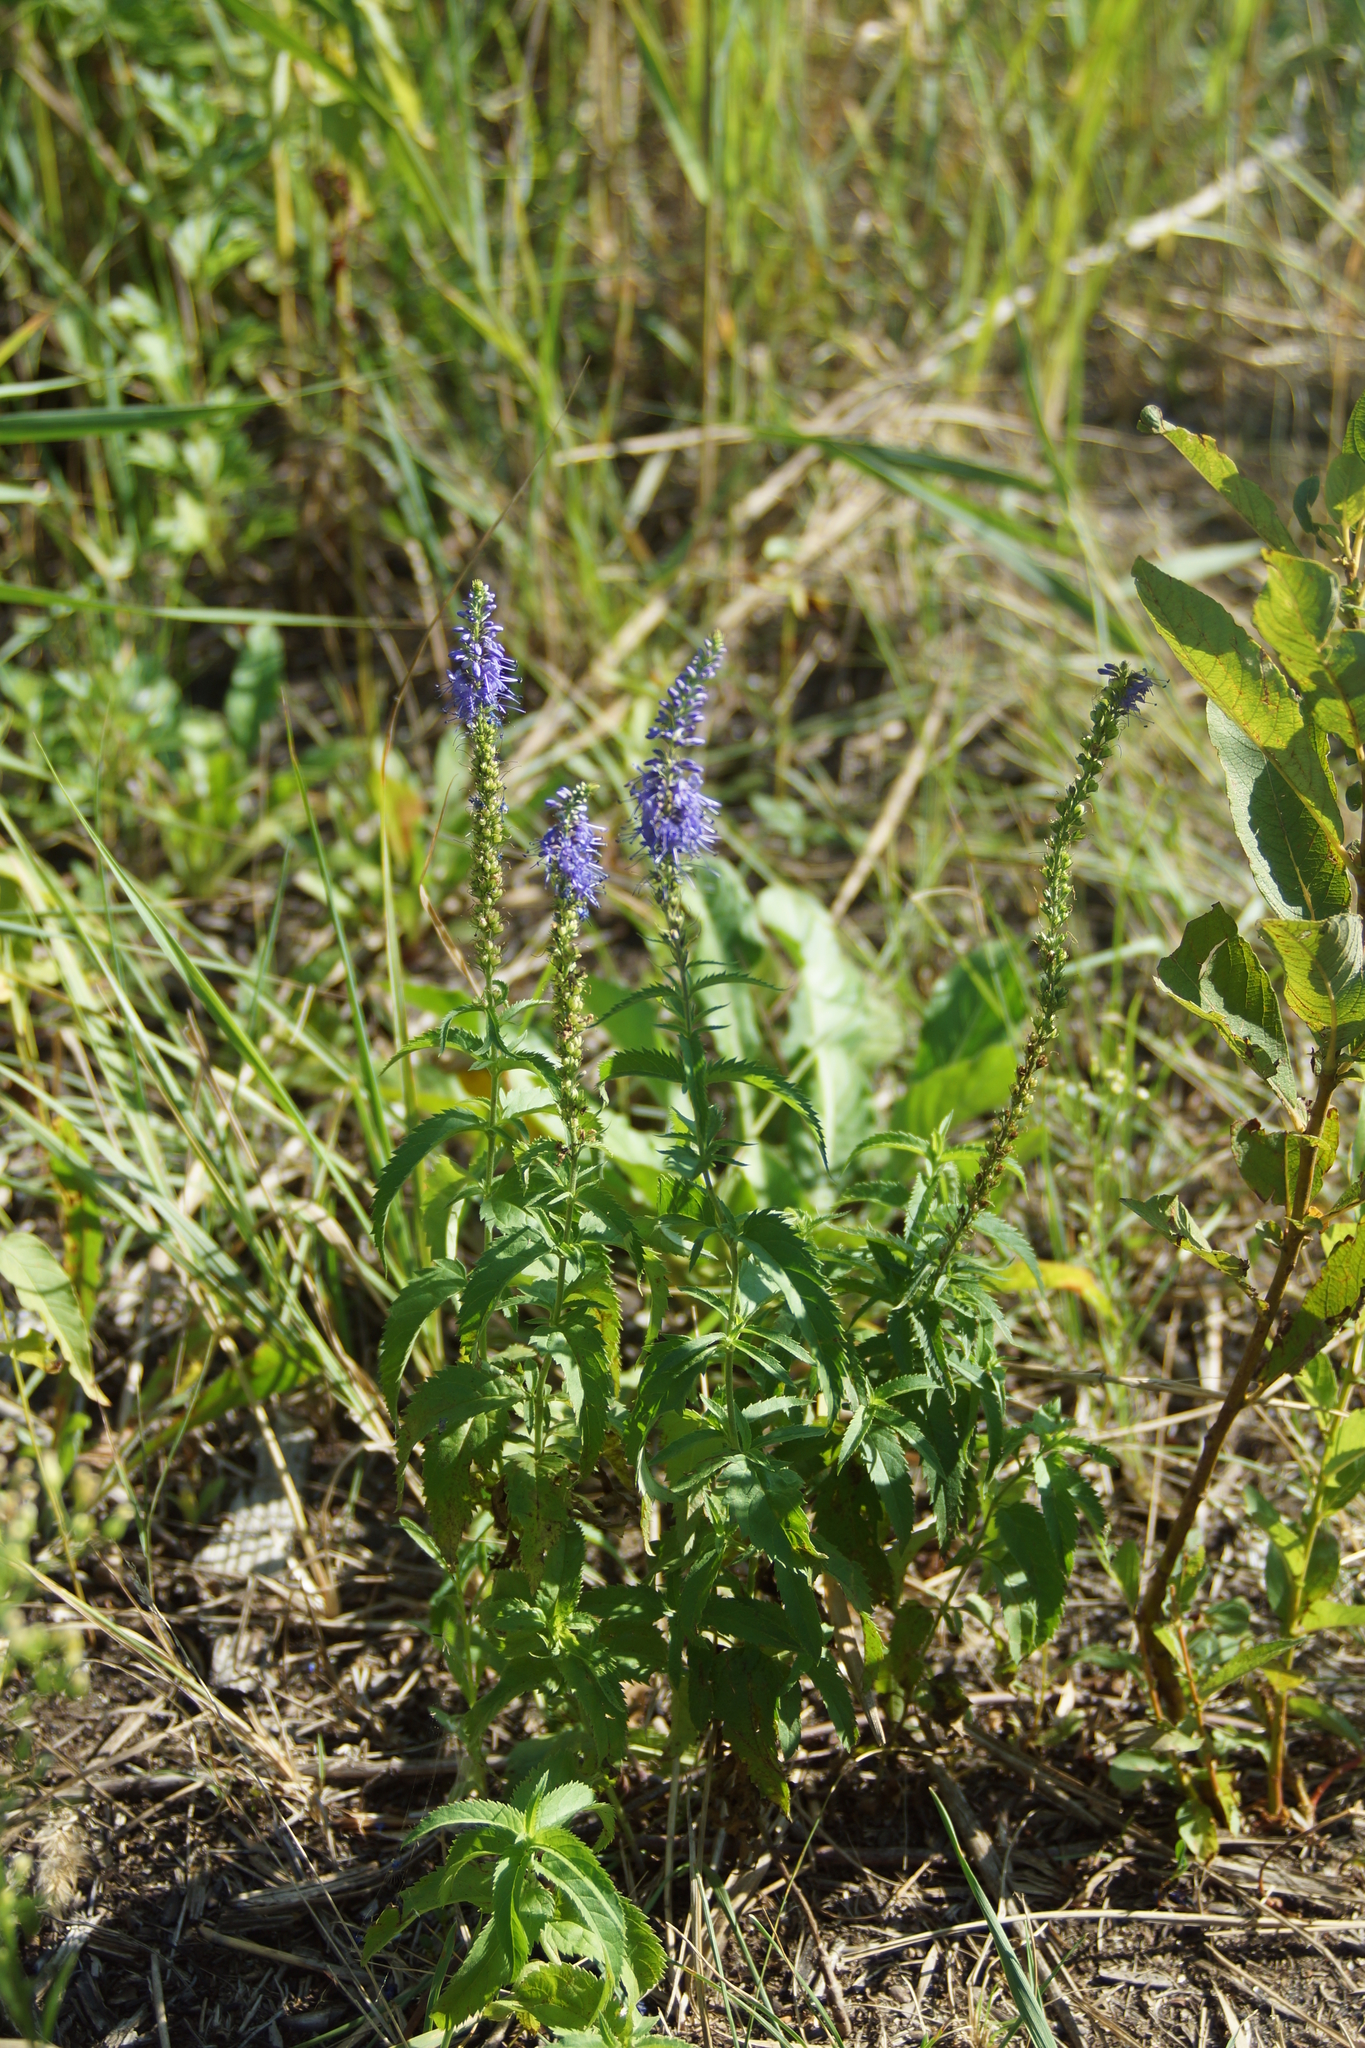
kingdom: Plantae
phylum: Tracheophyta
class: Magnoliopsida
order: Lamiales
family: Plantaginaceae
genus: Veronica
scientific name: Veronica longifolia
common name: Garden speedwell
